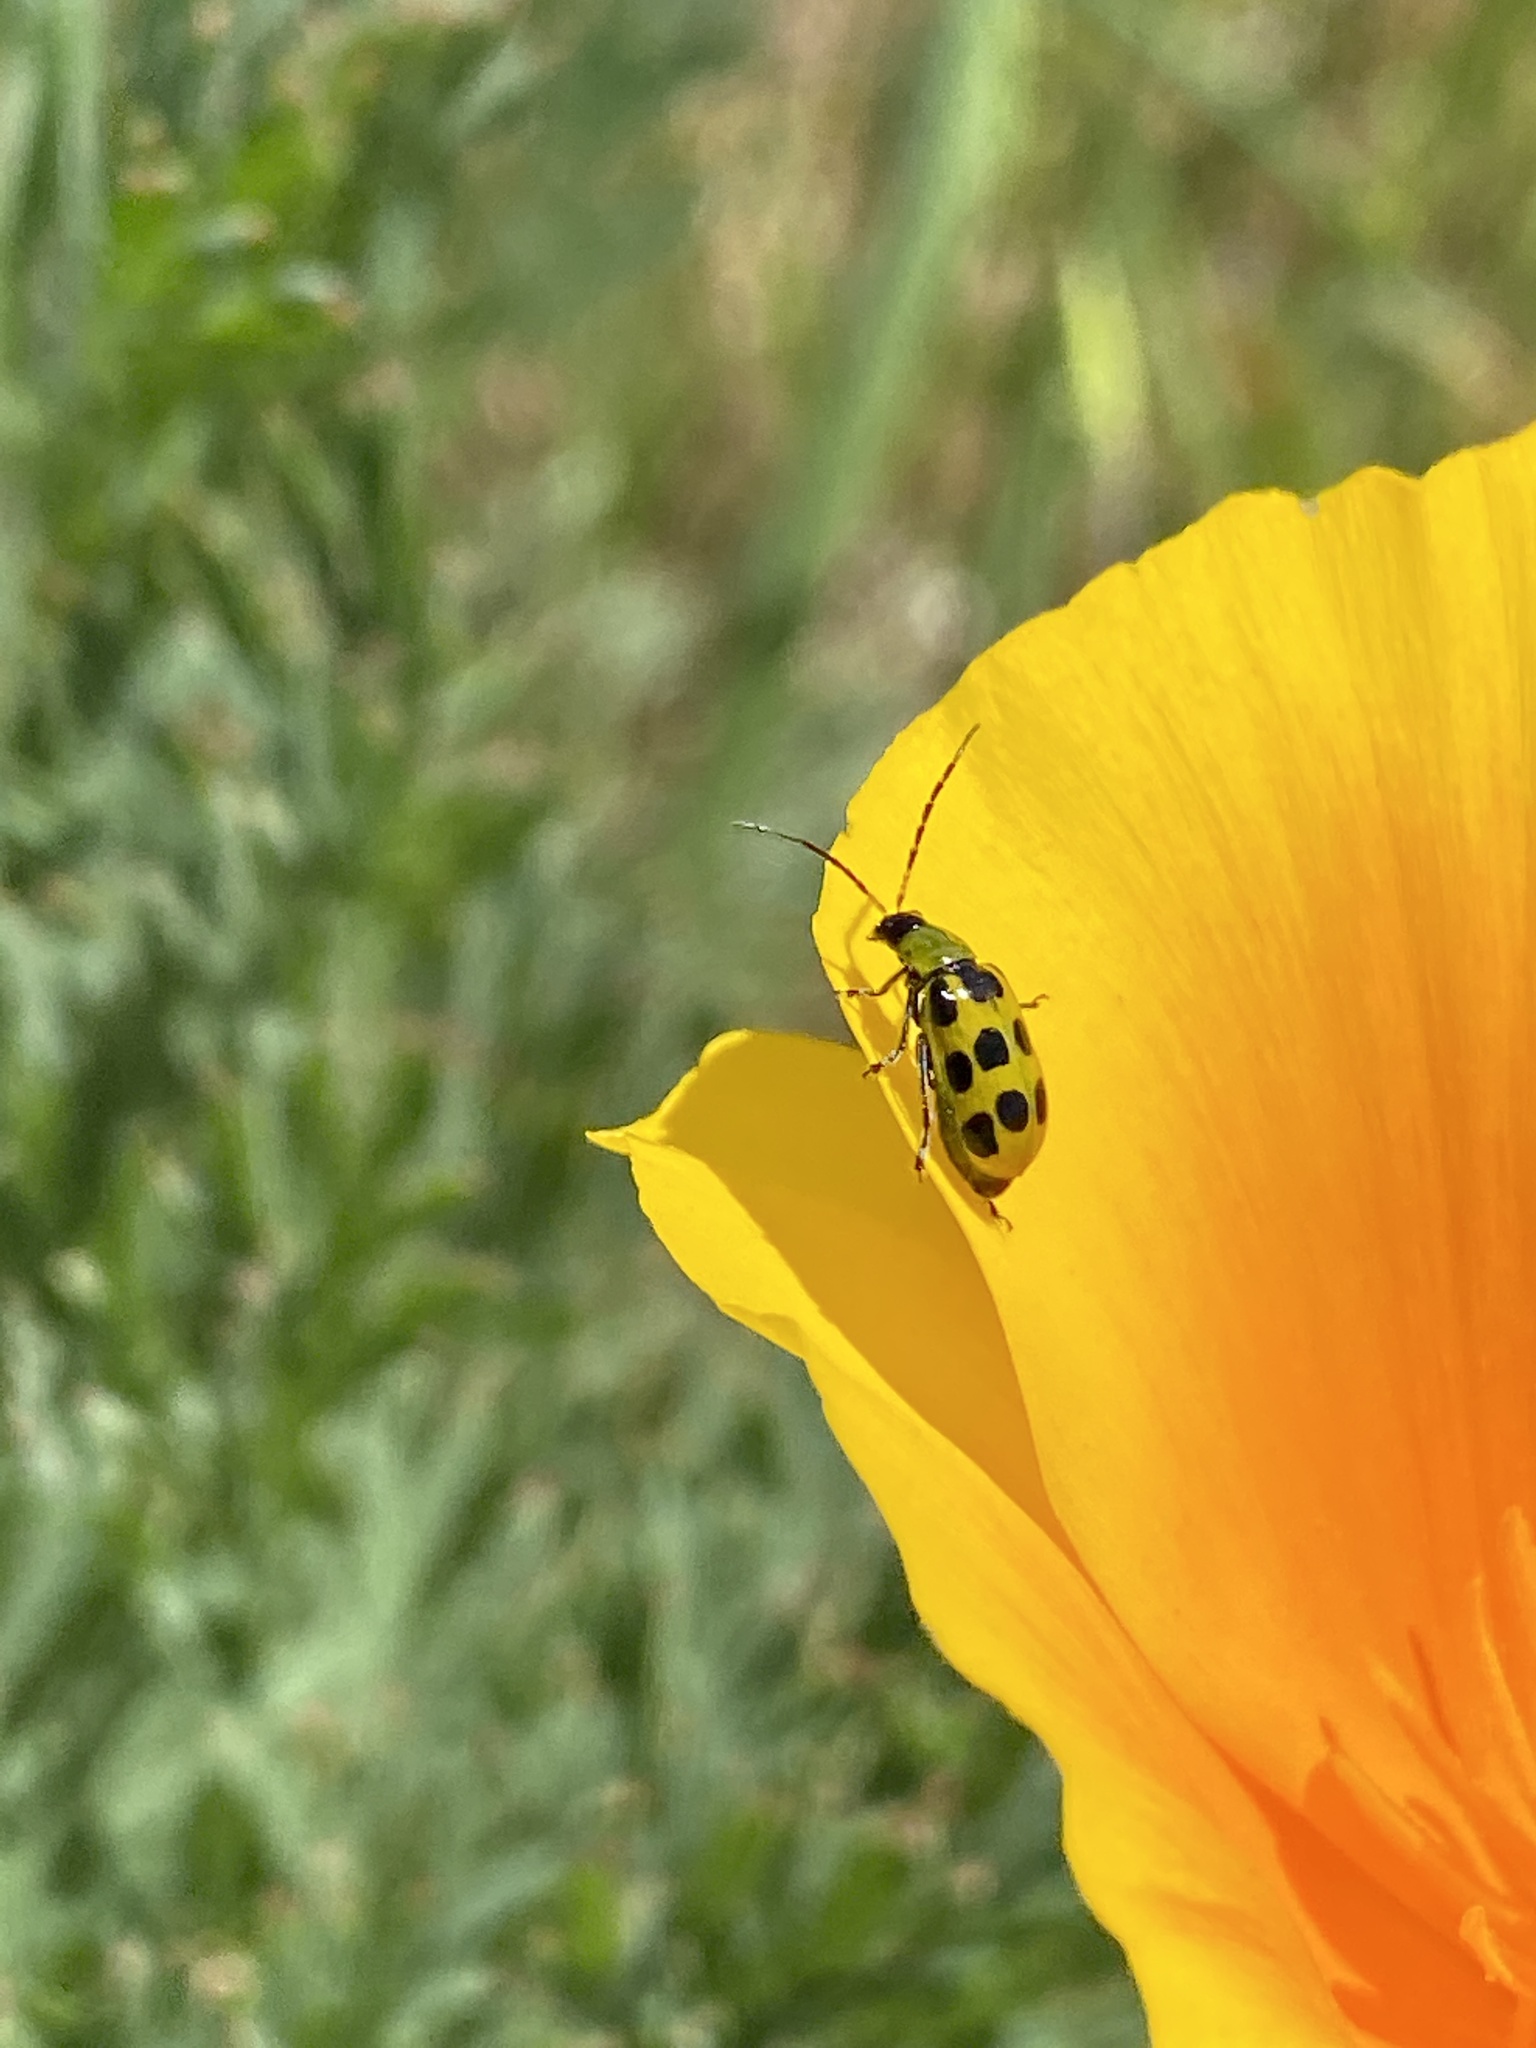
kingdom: Animalia
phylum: Arthropoda
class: Insecta
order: Coleoptera
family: Chrysomelidae
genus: Diabrotica
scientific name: Diabrotica undecimpunctata
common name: Spotted cucumber beetle
